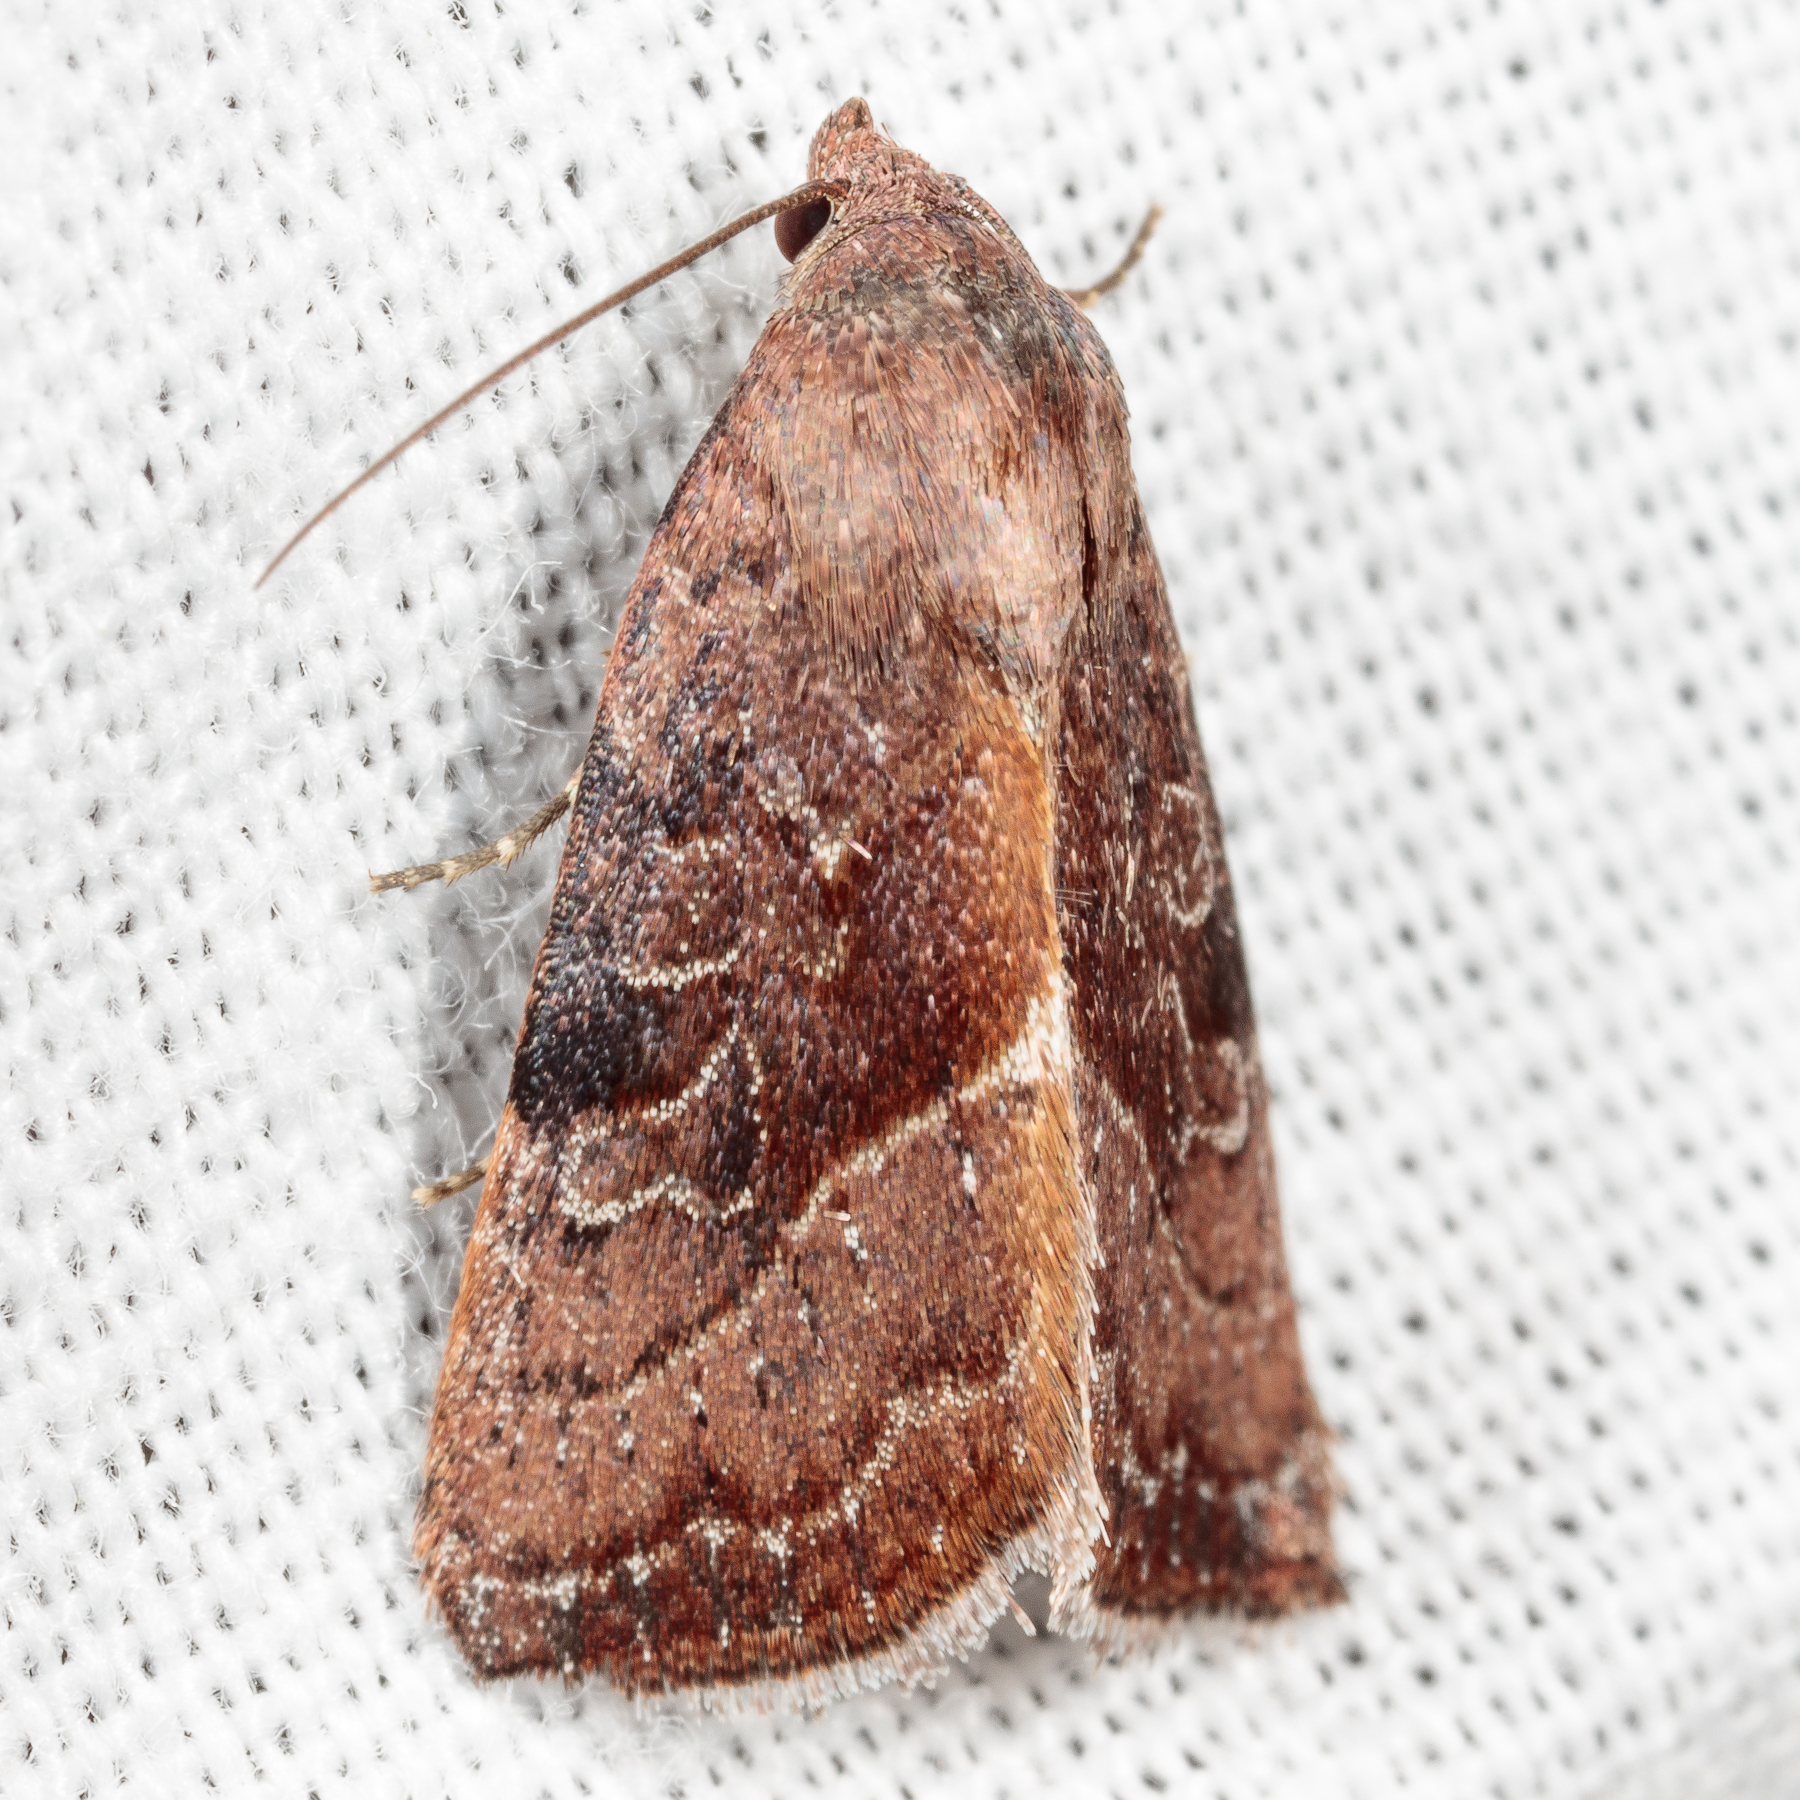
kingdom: Animalia
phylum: Arthropoda
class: Insecta
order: Lepidoptera
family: Noctuidae
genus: Galgula
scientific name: Galgula partita
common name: Wedgeling
